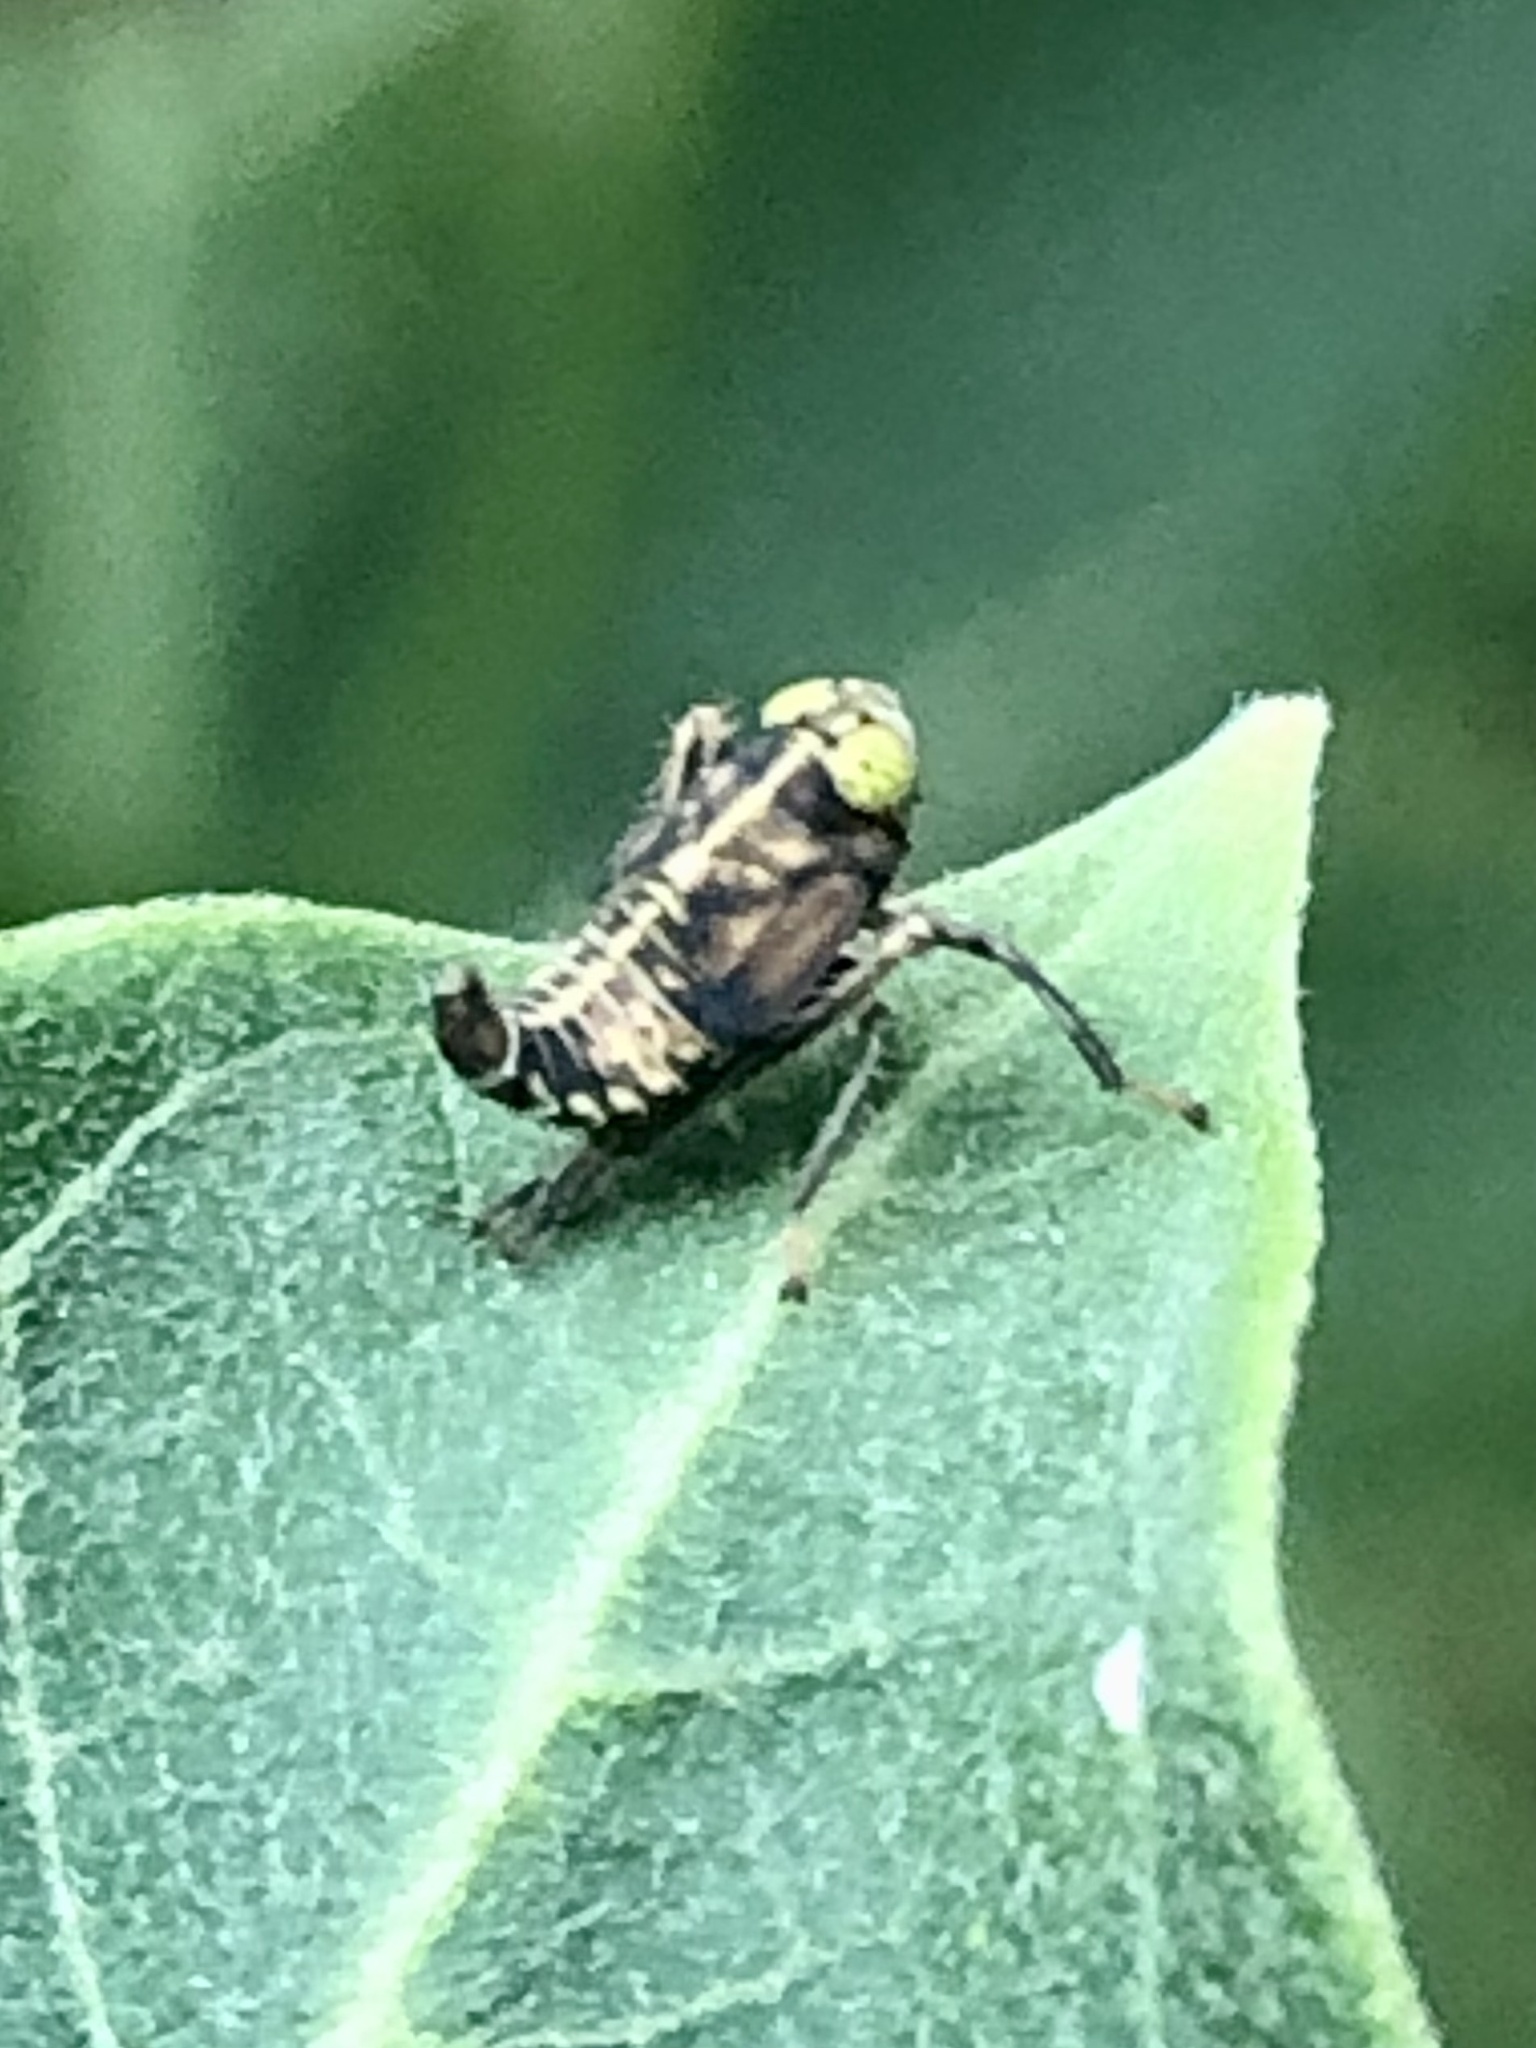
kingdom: Animalia
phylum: Arthropoda
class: Insecta
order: Hemiptera
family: Cicadellidae
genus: Jikradia
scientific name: Jikradia olitoria
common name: Coppery leafhopper
